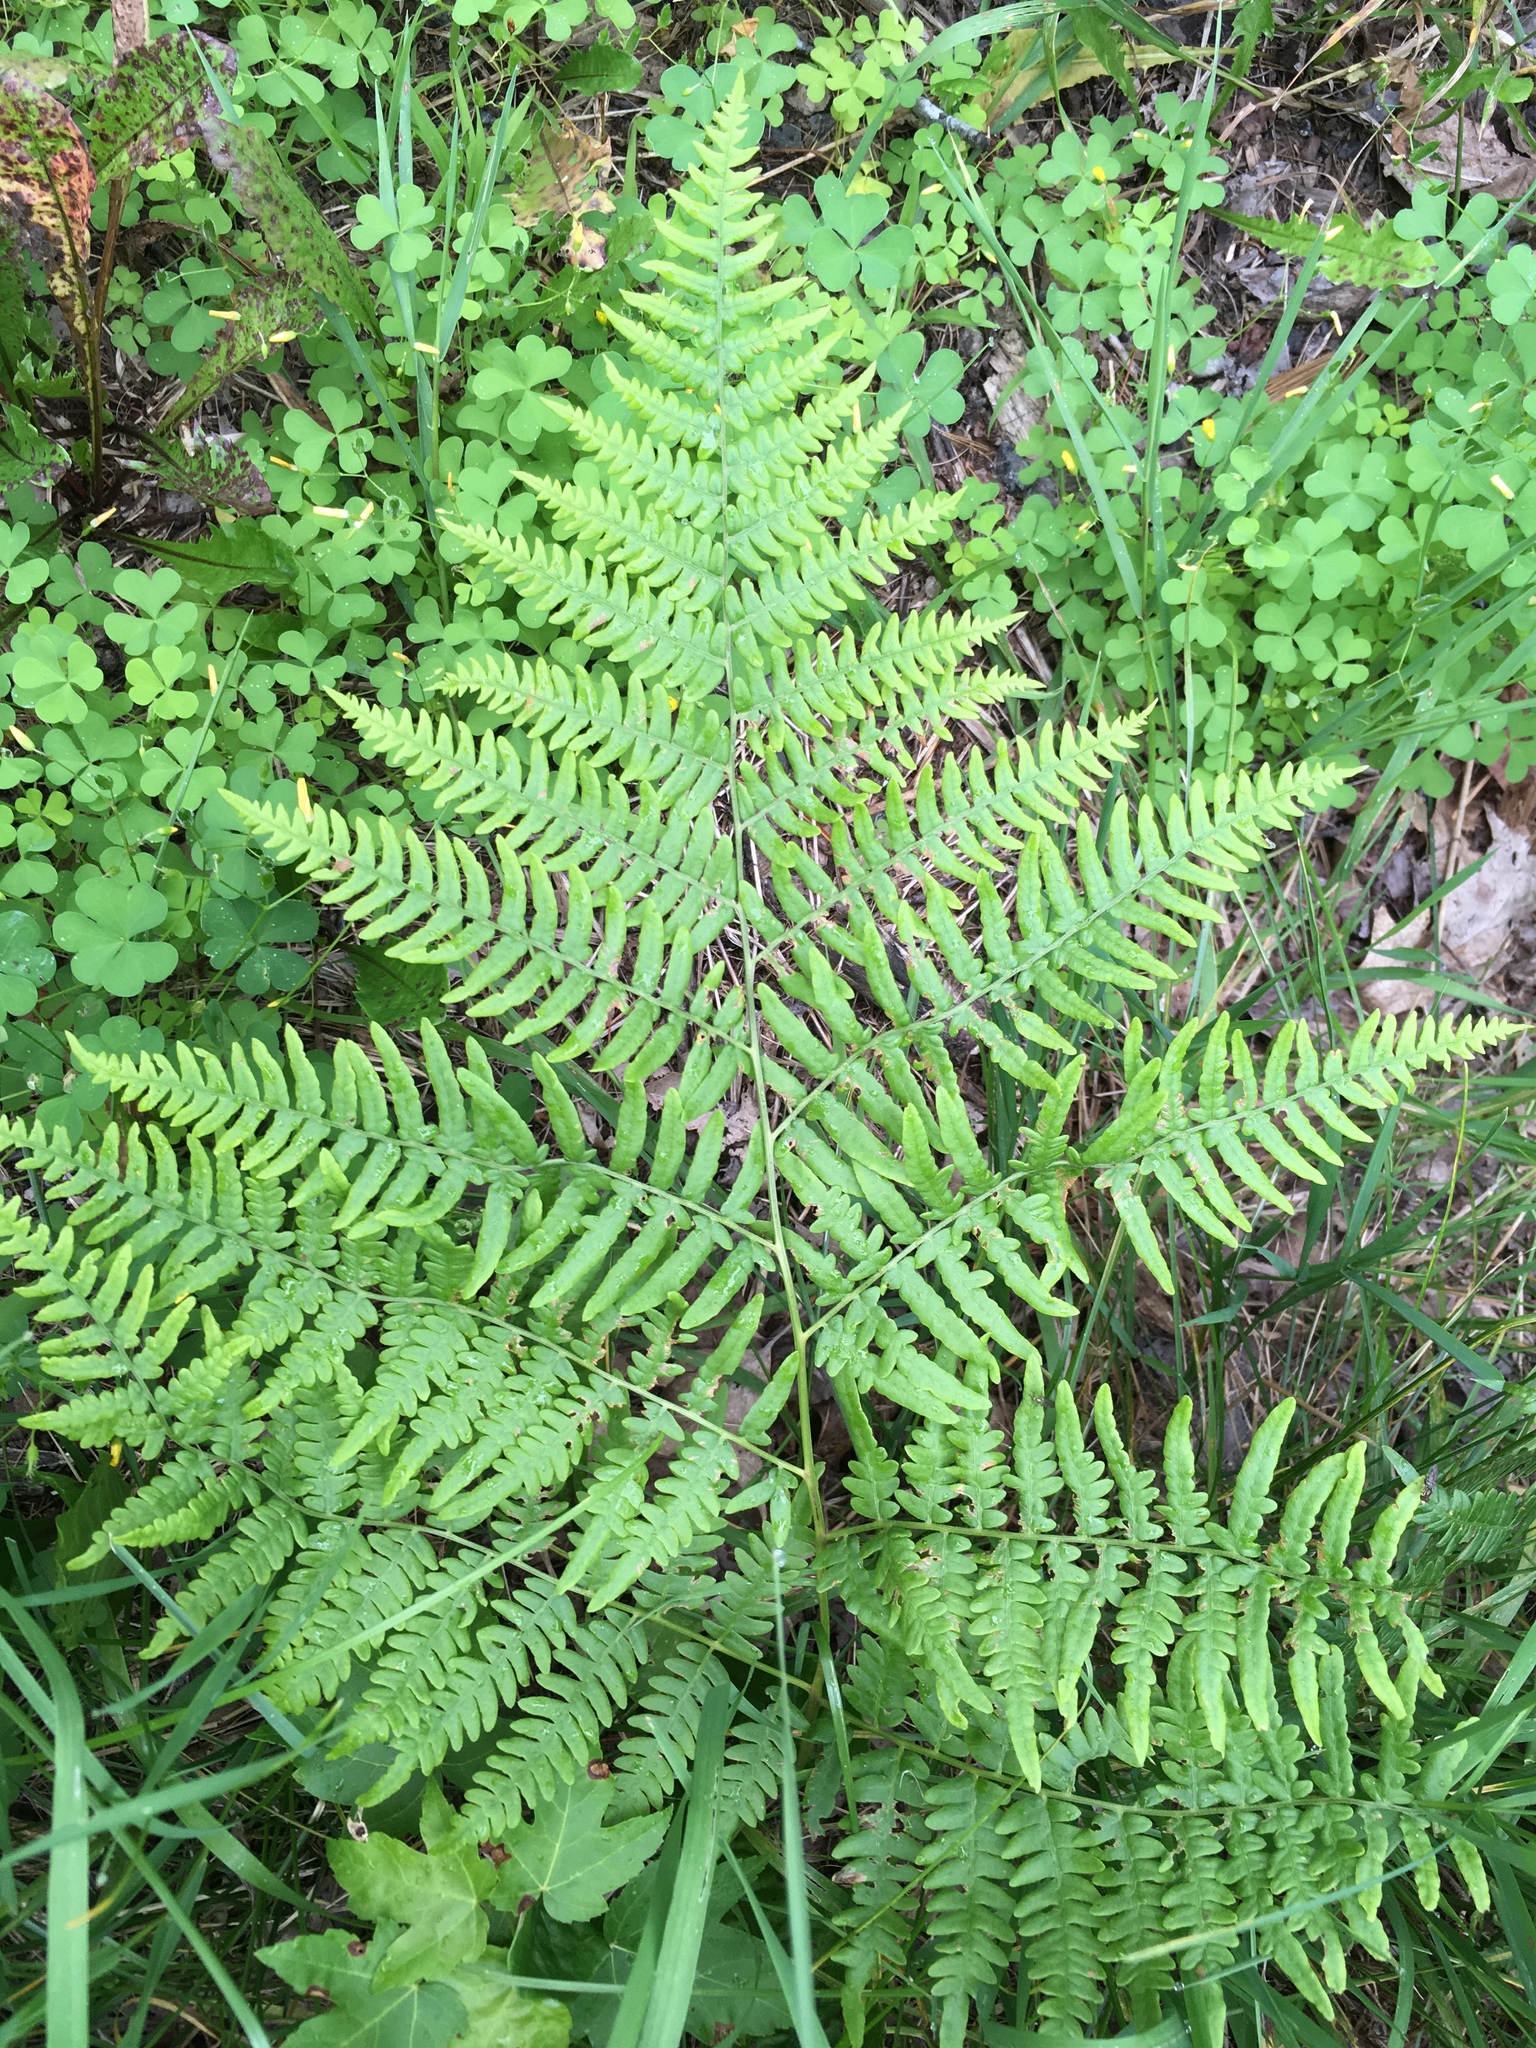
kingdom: Plantae
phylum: Tracheophyta
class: Polypodiopsida
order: Polypodiales
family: Dennstaedtiaceae
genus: Pteridium
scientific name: Pteridium aquilinum
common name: Bracken
